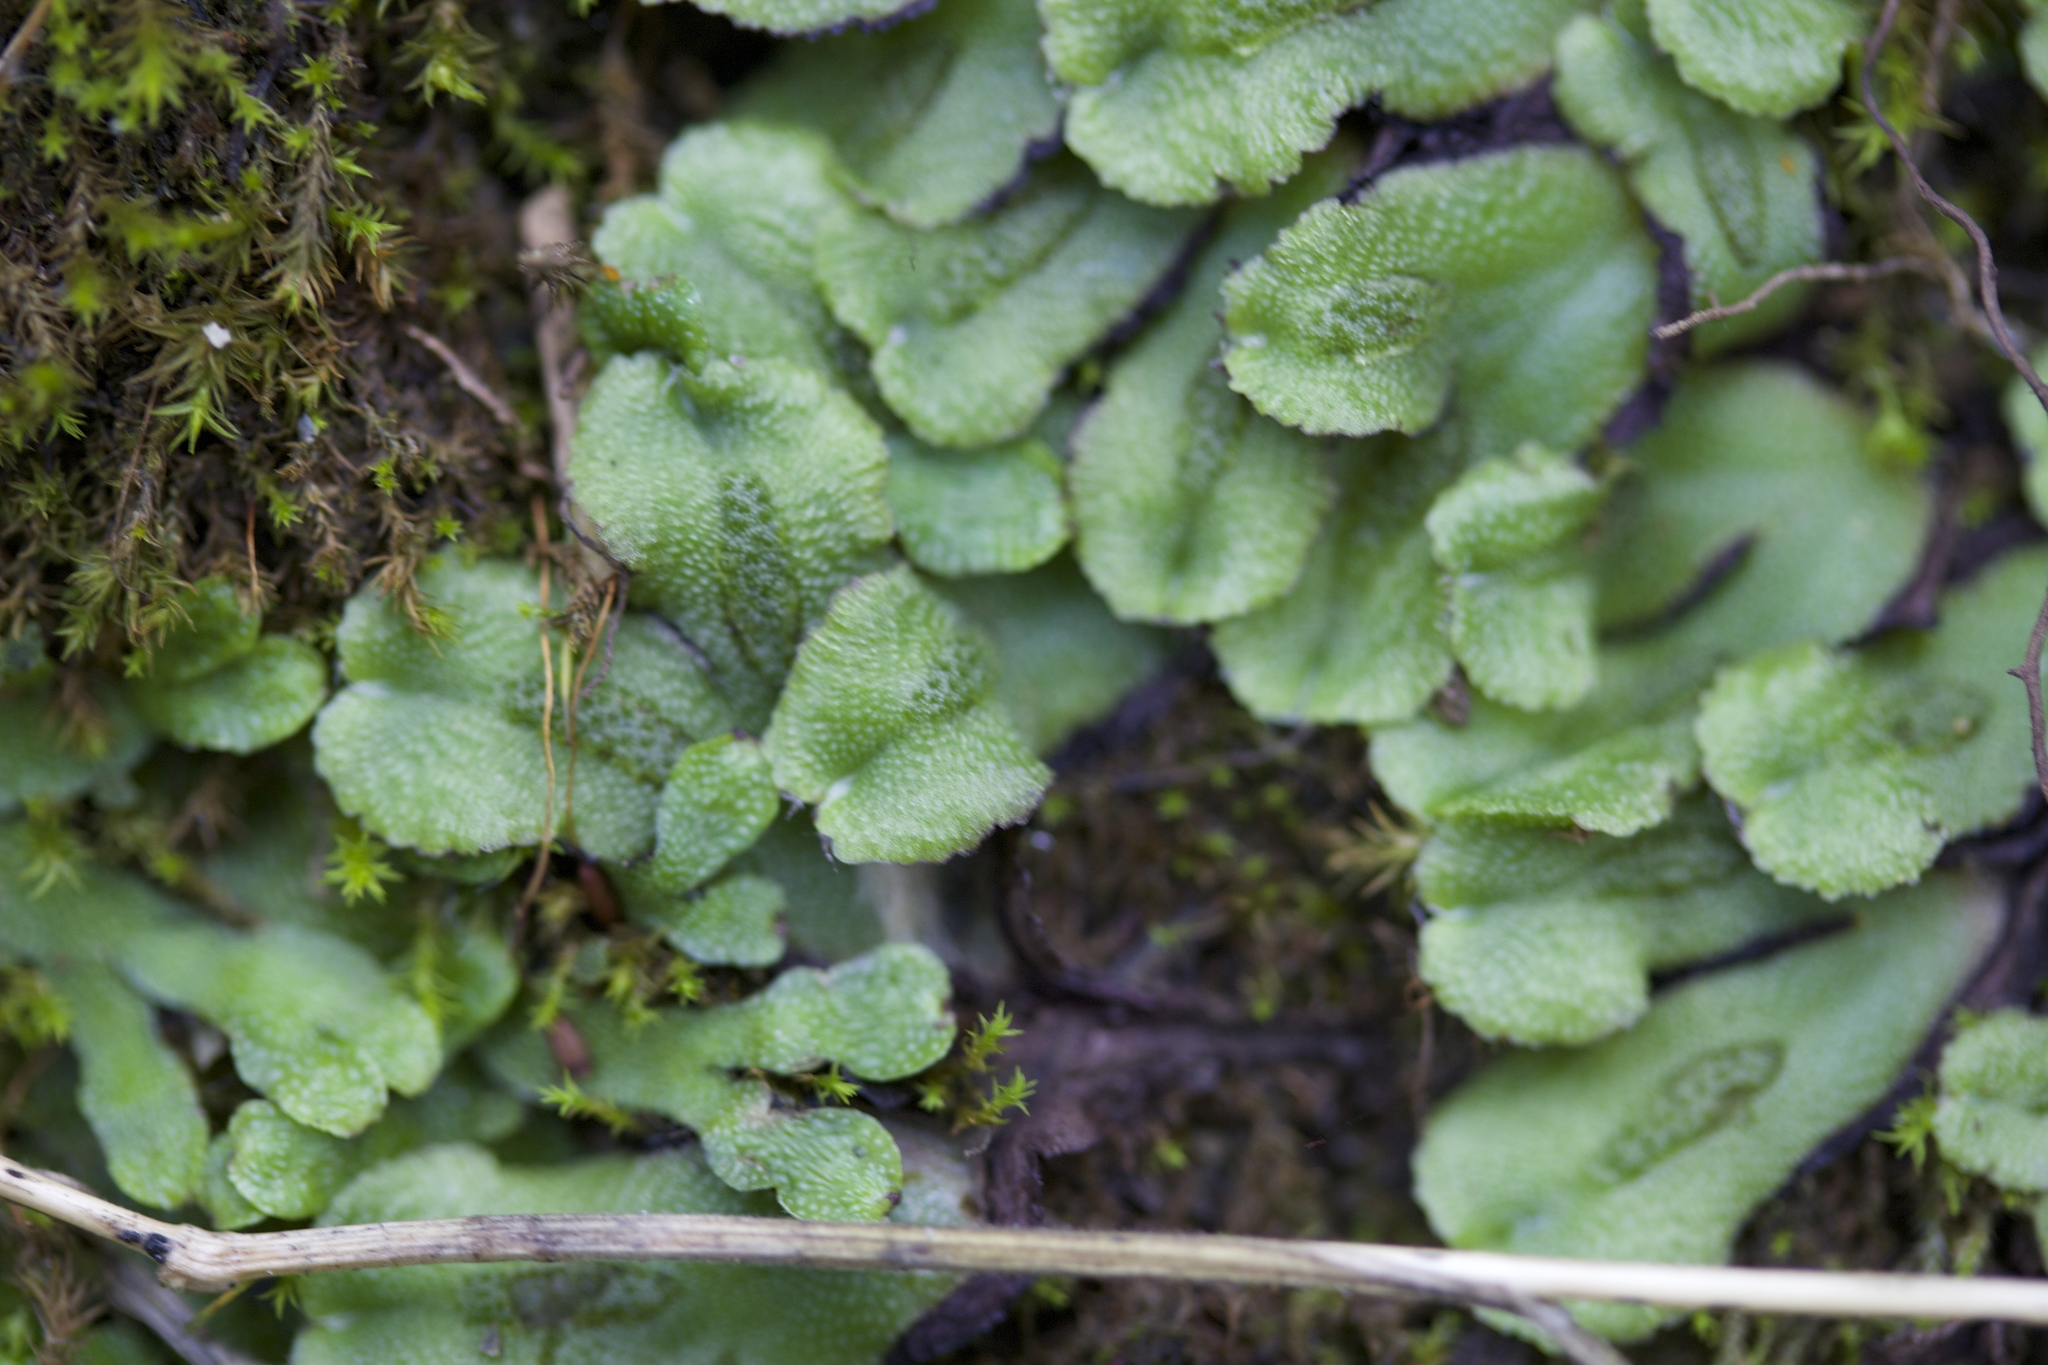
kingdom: Plantae
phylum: Marchantiophyta
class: Marchantiopsida
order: Marchantiales
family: Aytoniaceae
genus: Asterella
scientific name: Asterella californica
